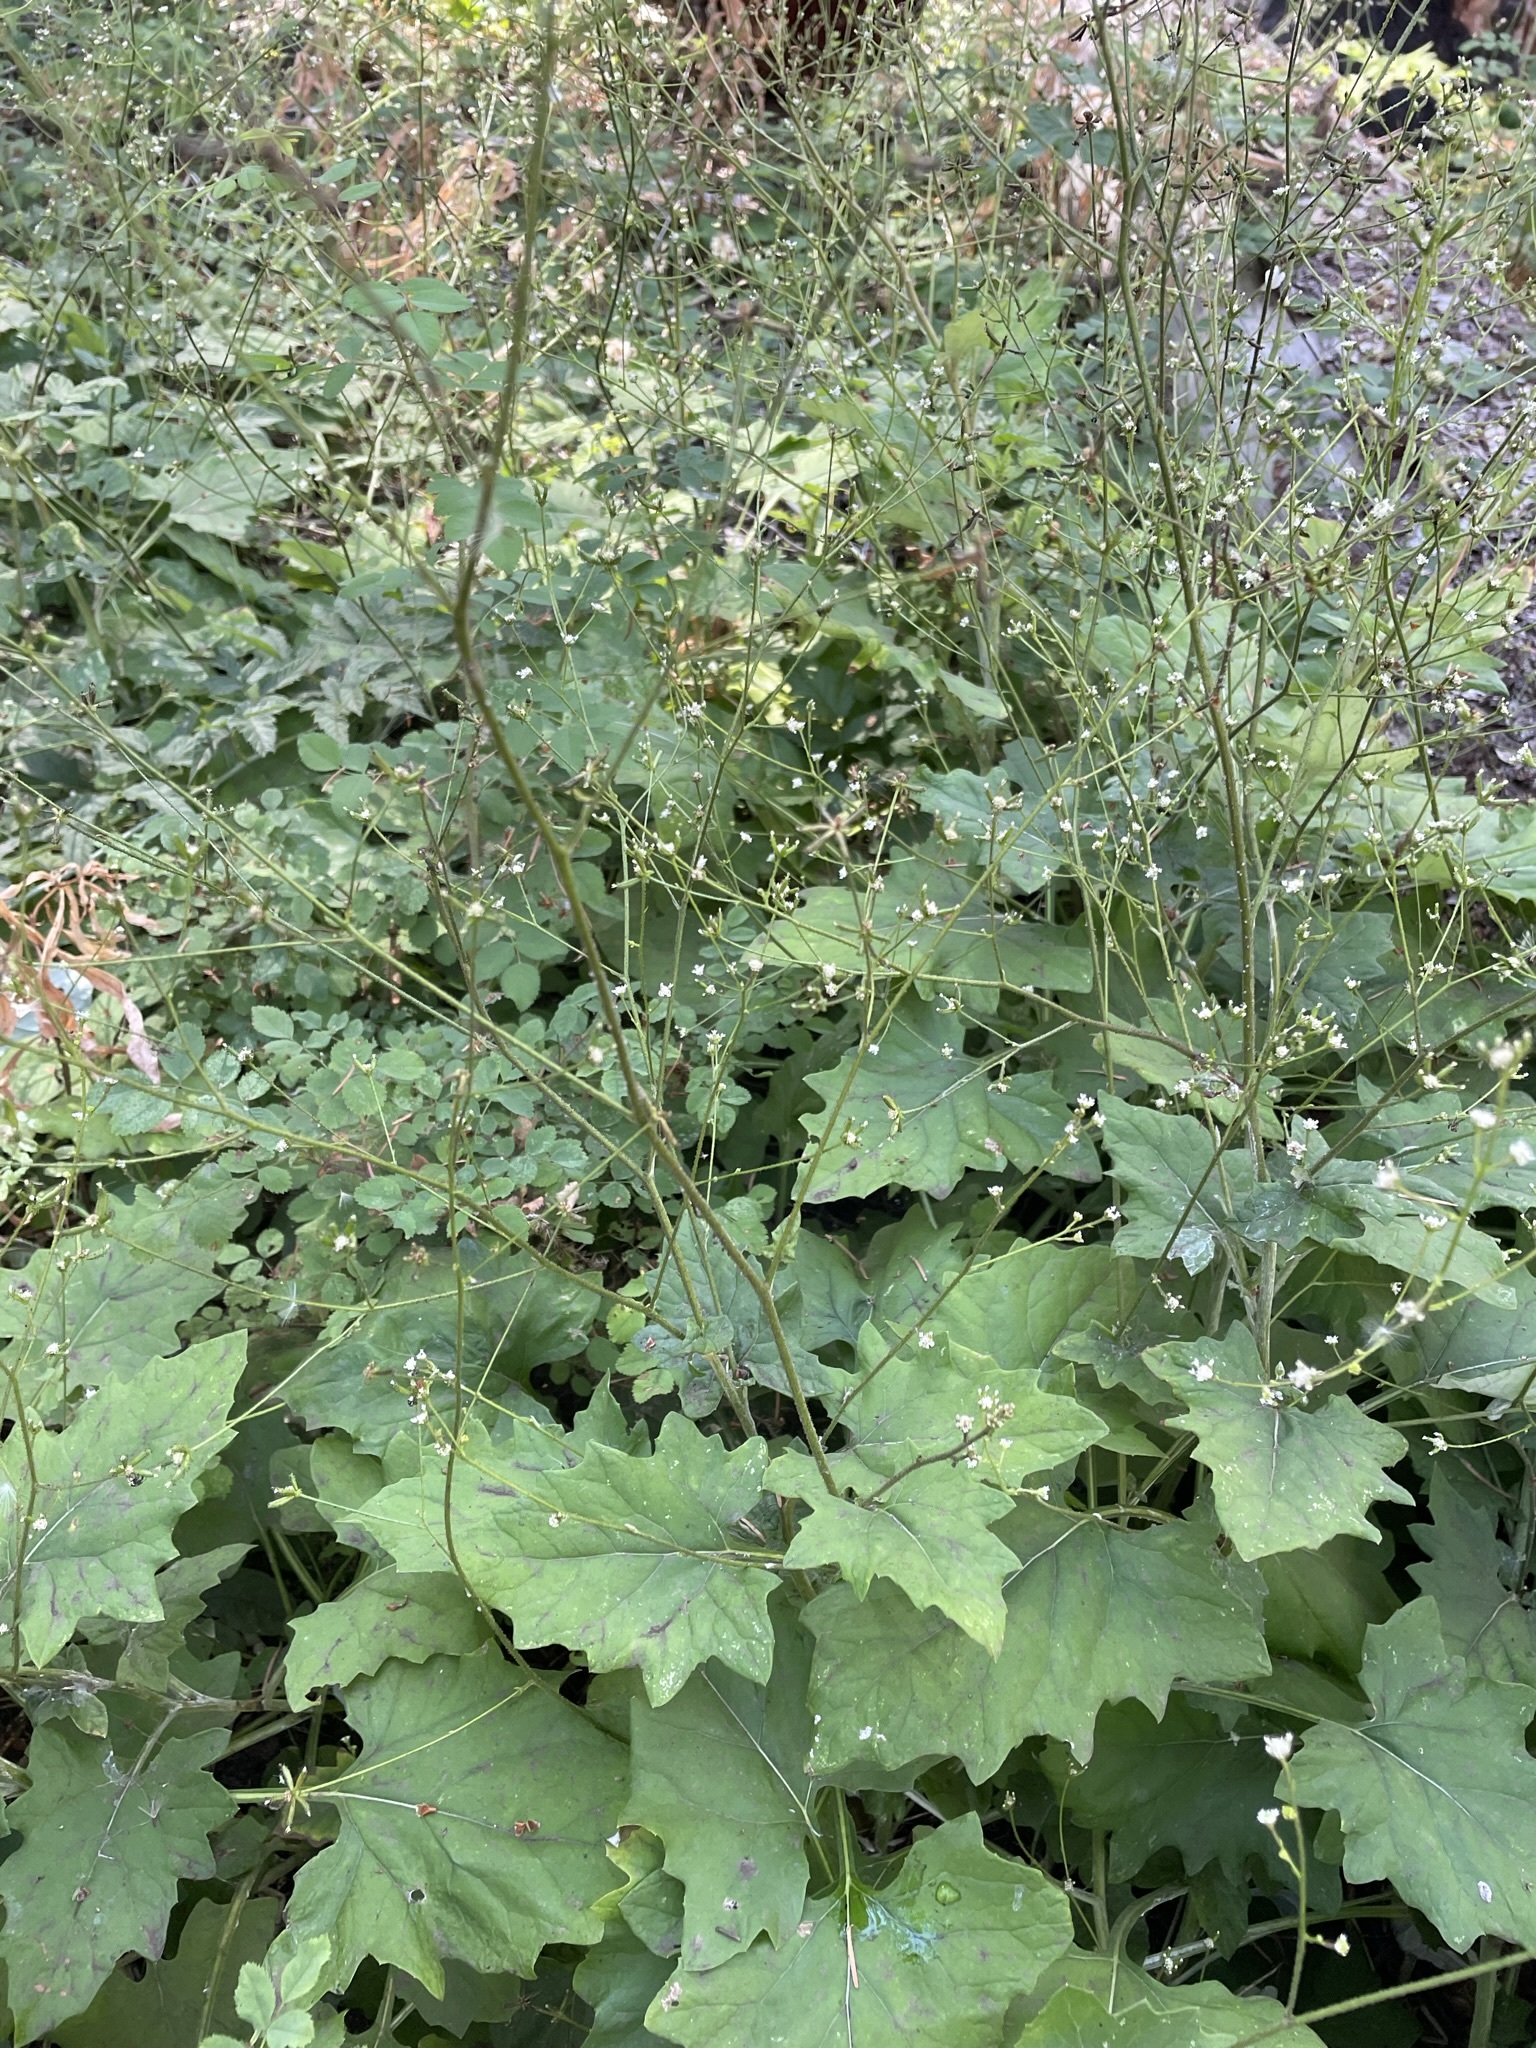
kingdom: Plantae
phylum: Tracheophyta
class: Magnoliopsida
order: Asterales
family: Asteraceae
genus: Adenocaulon
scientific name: Adenocaulon bicolor
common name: Trailplant
